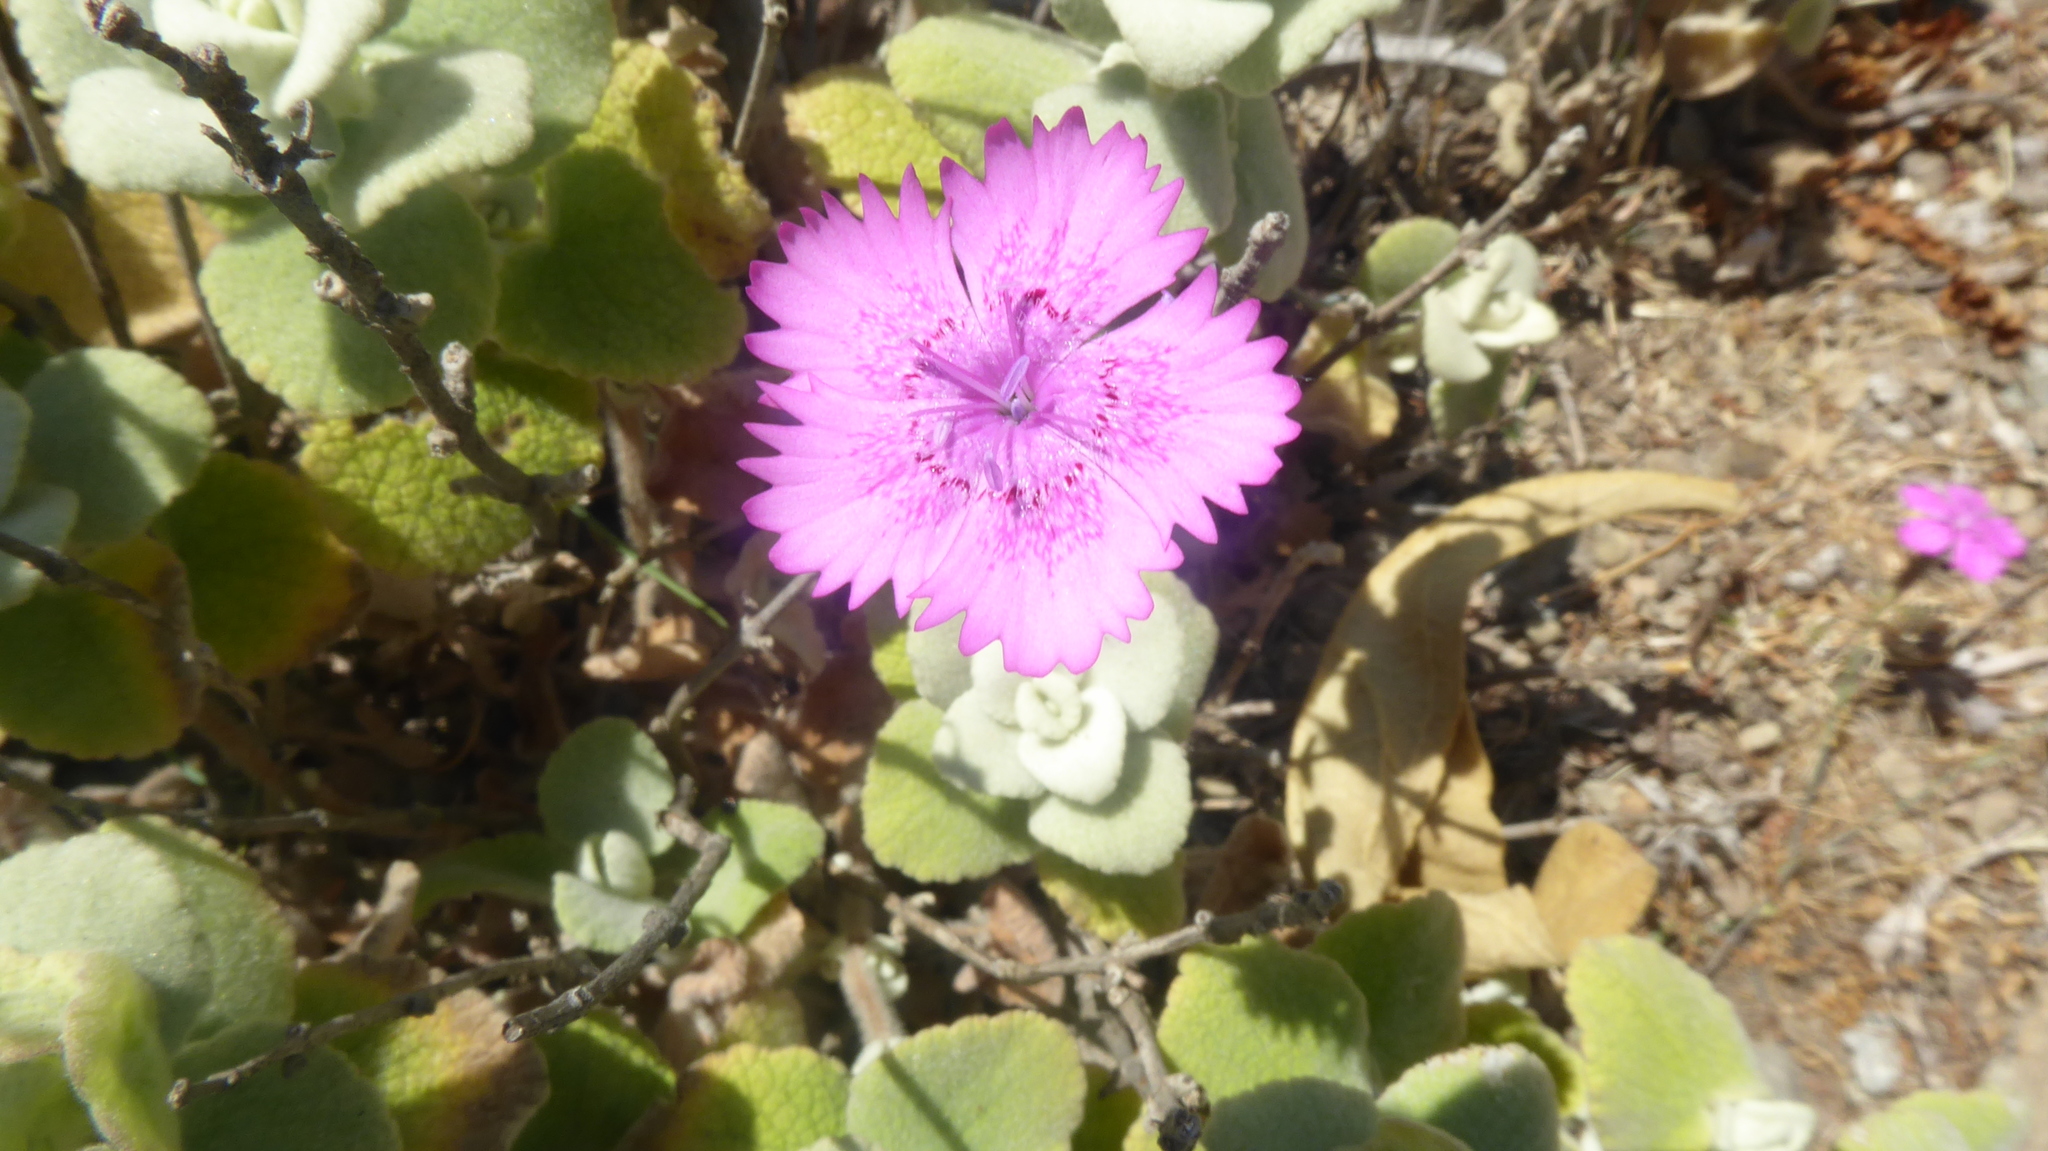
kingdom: Plantae
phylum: Tracheophyta
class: Magnoliopsida
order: Caryophyllales
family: Caryophyllaceae
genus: Dianthus
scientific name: Dianthus elegans
